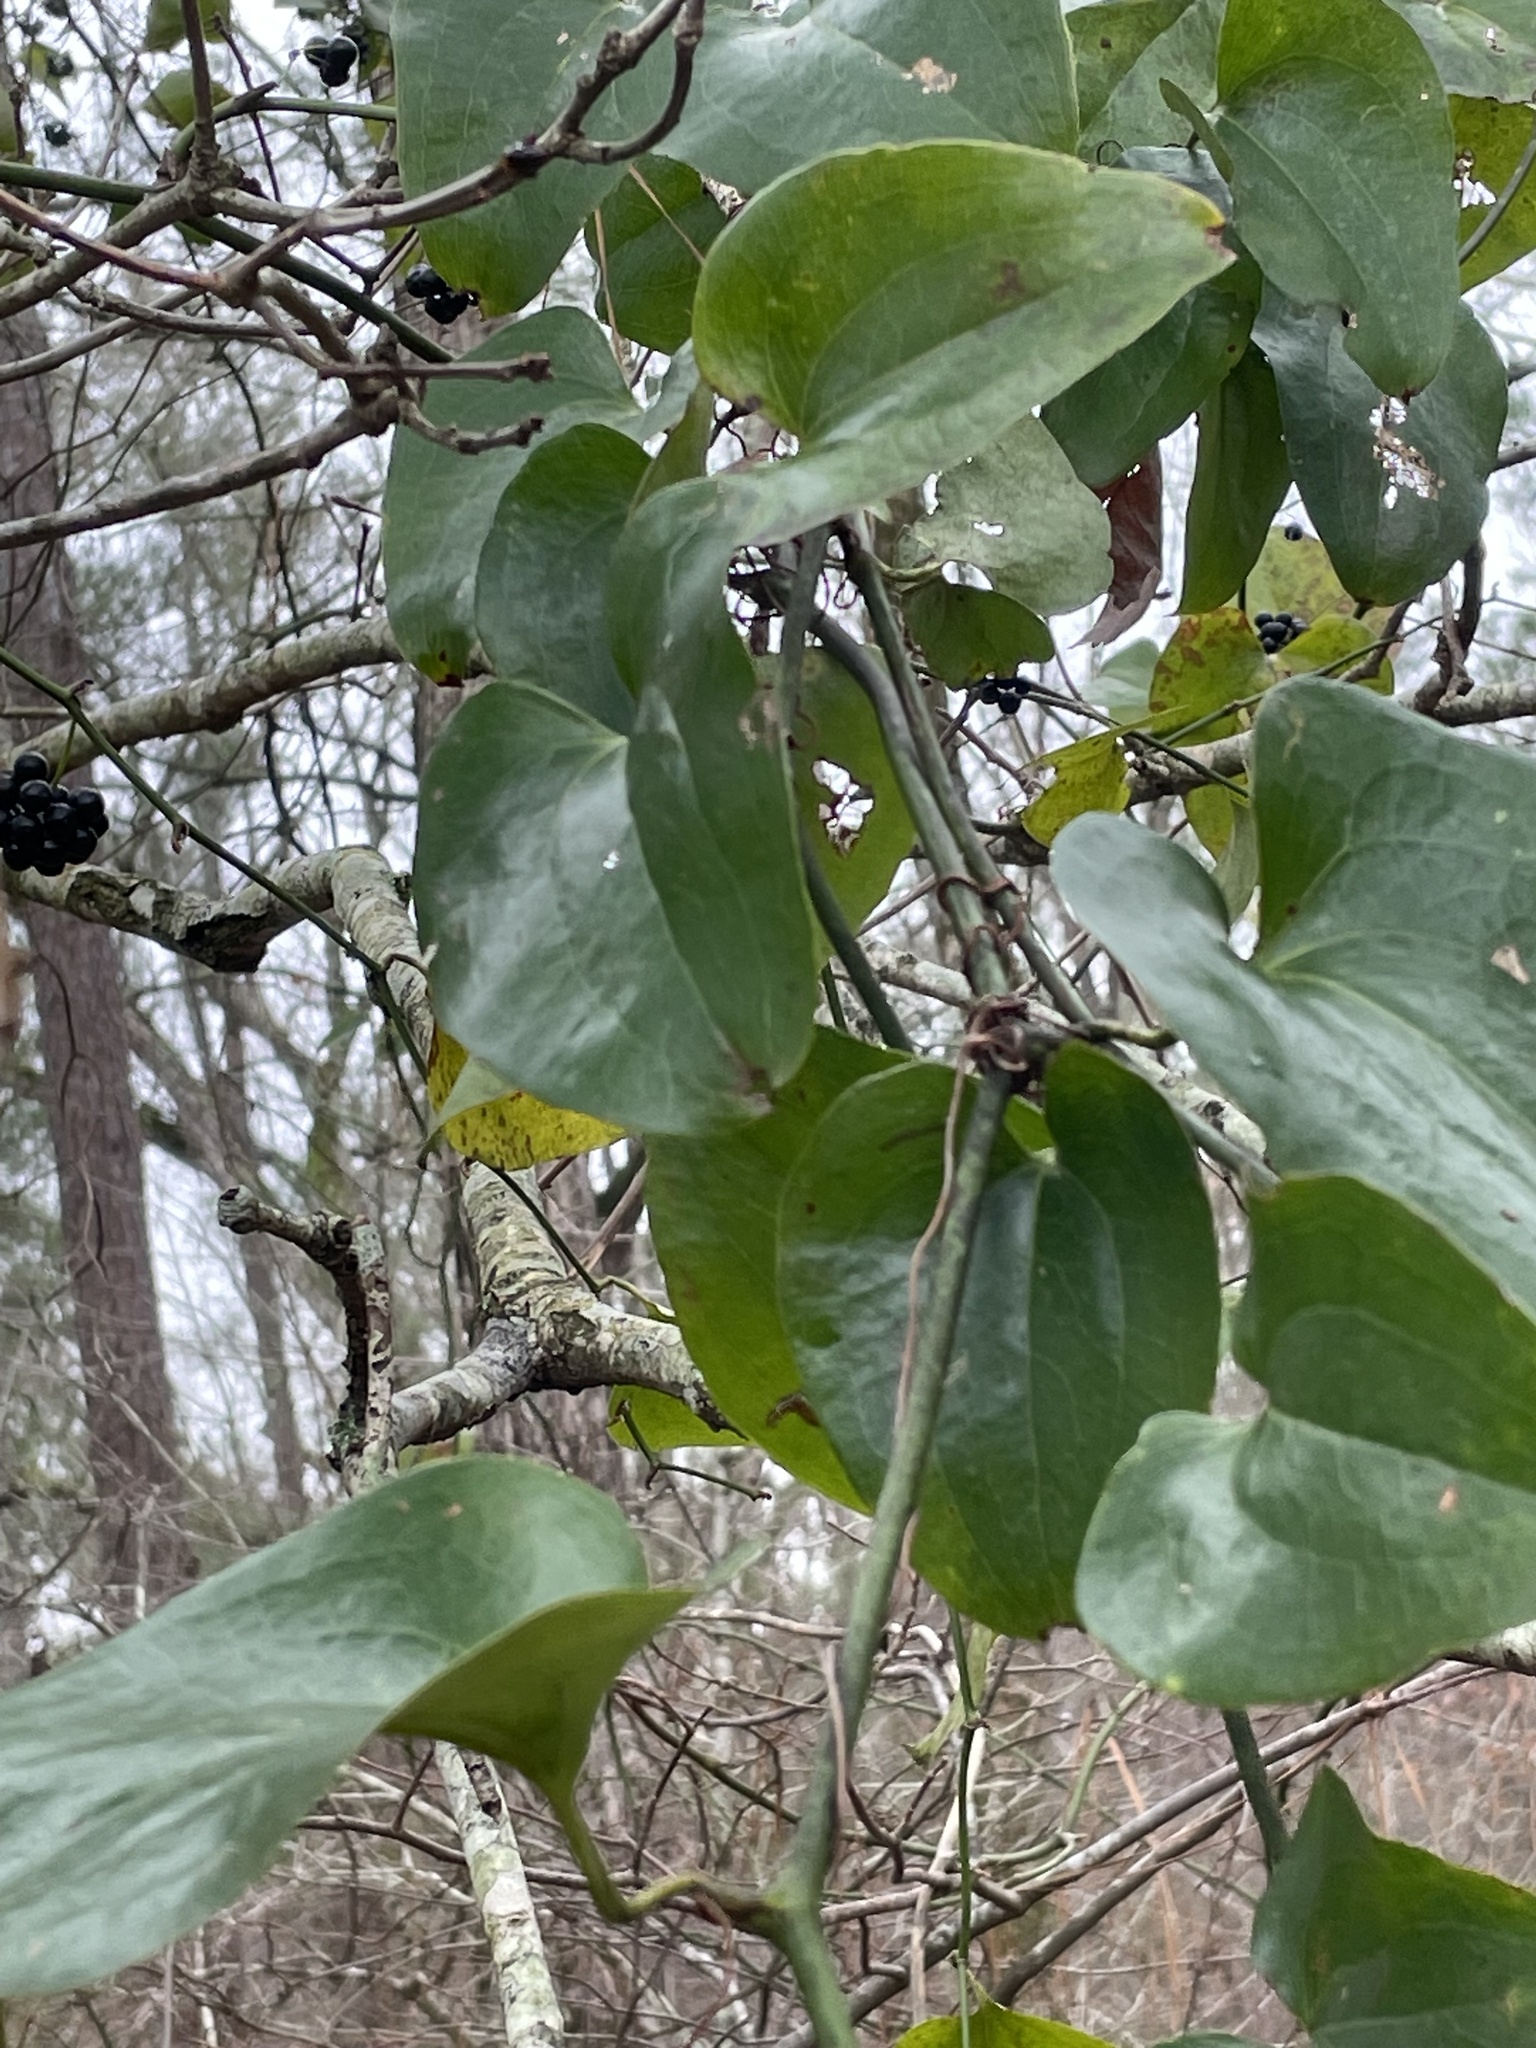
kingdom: Plantae
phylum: Tracheophyta
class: Liliopsida
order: Liliales
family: Smilacaceae
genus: Smilax
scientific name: Smilax bona-nox
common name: Catbrier
